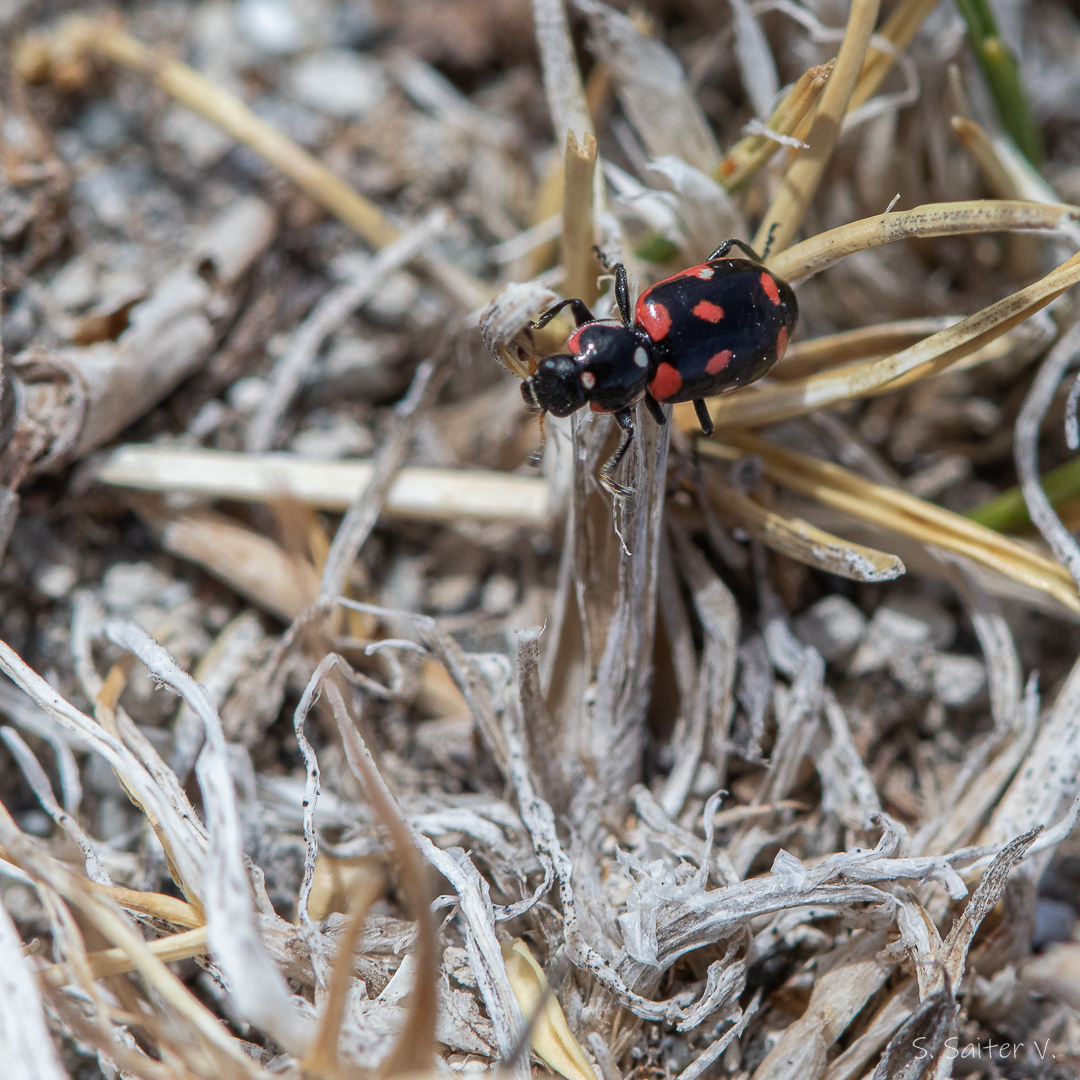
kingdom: Animalia
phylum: Arthropoda
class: Insecta
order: Coleoptera
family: Coccinellidae
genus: Eriopis
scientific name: Eriopis magellanica
